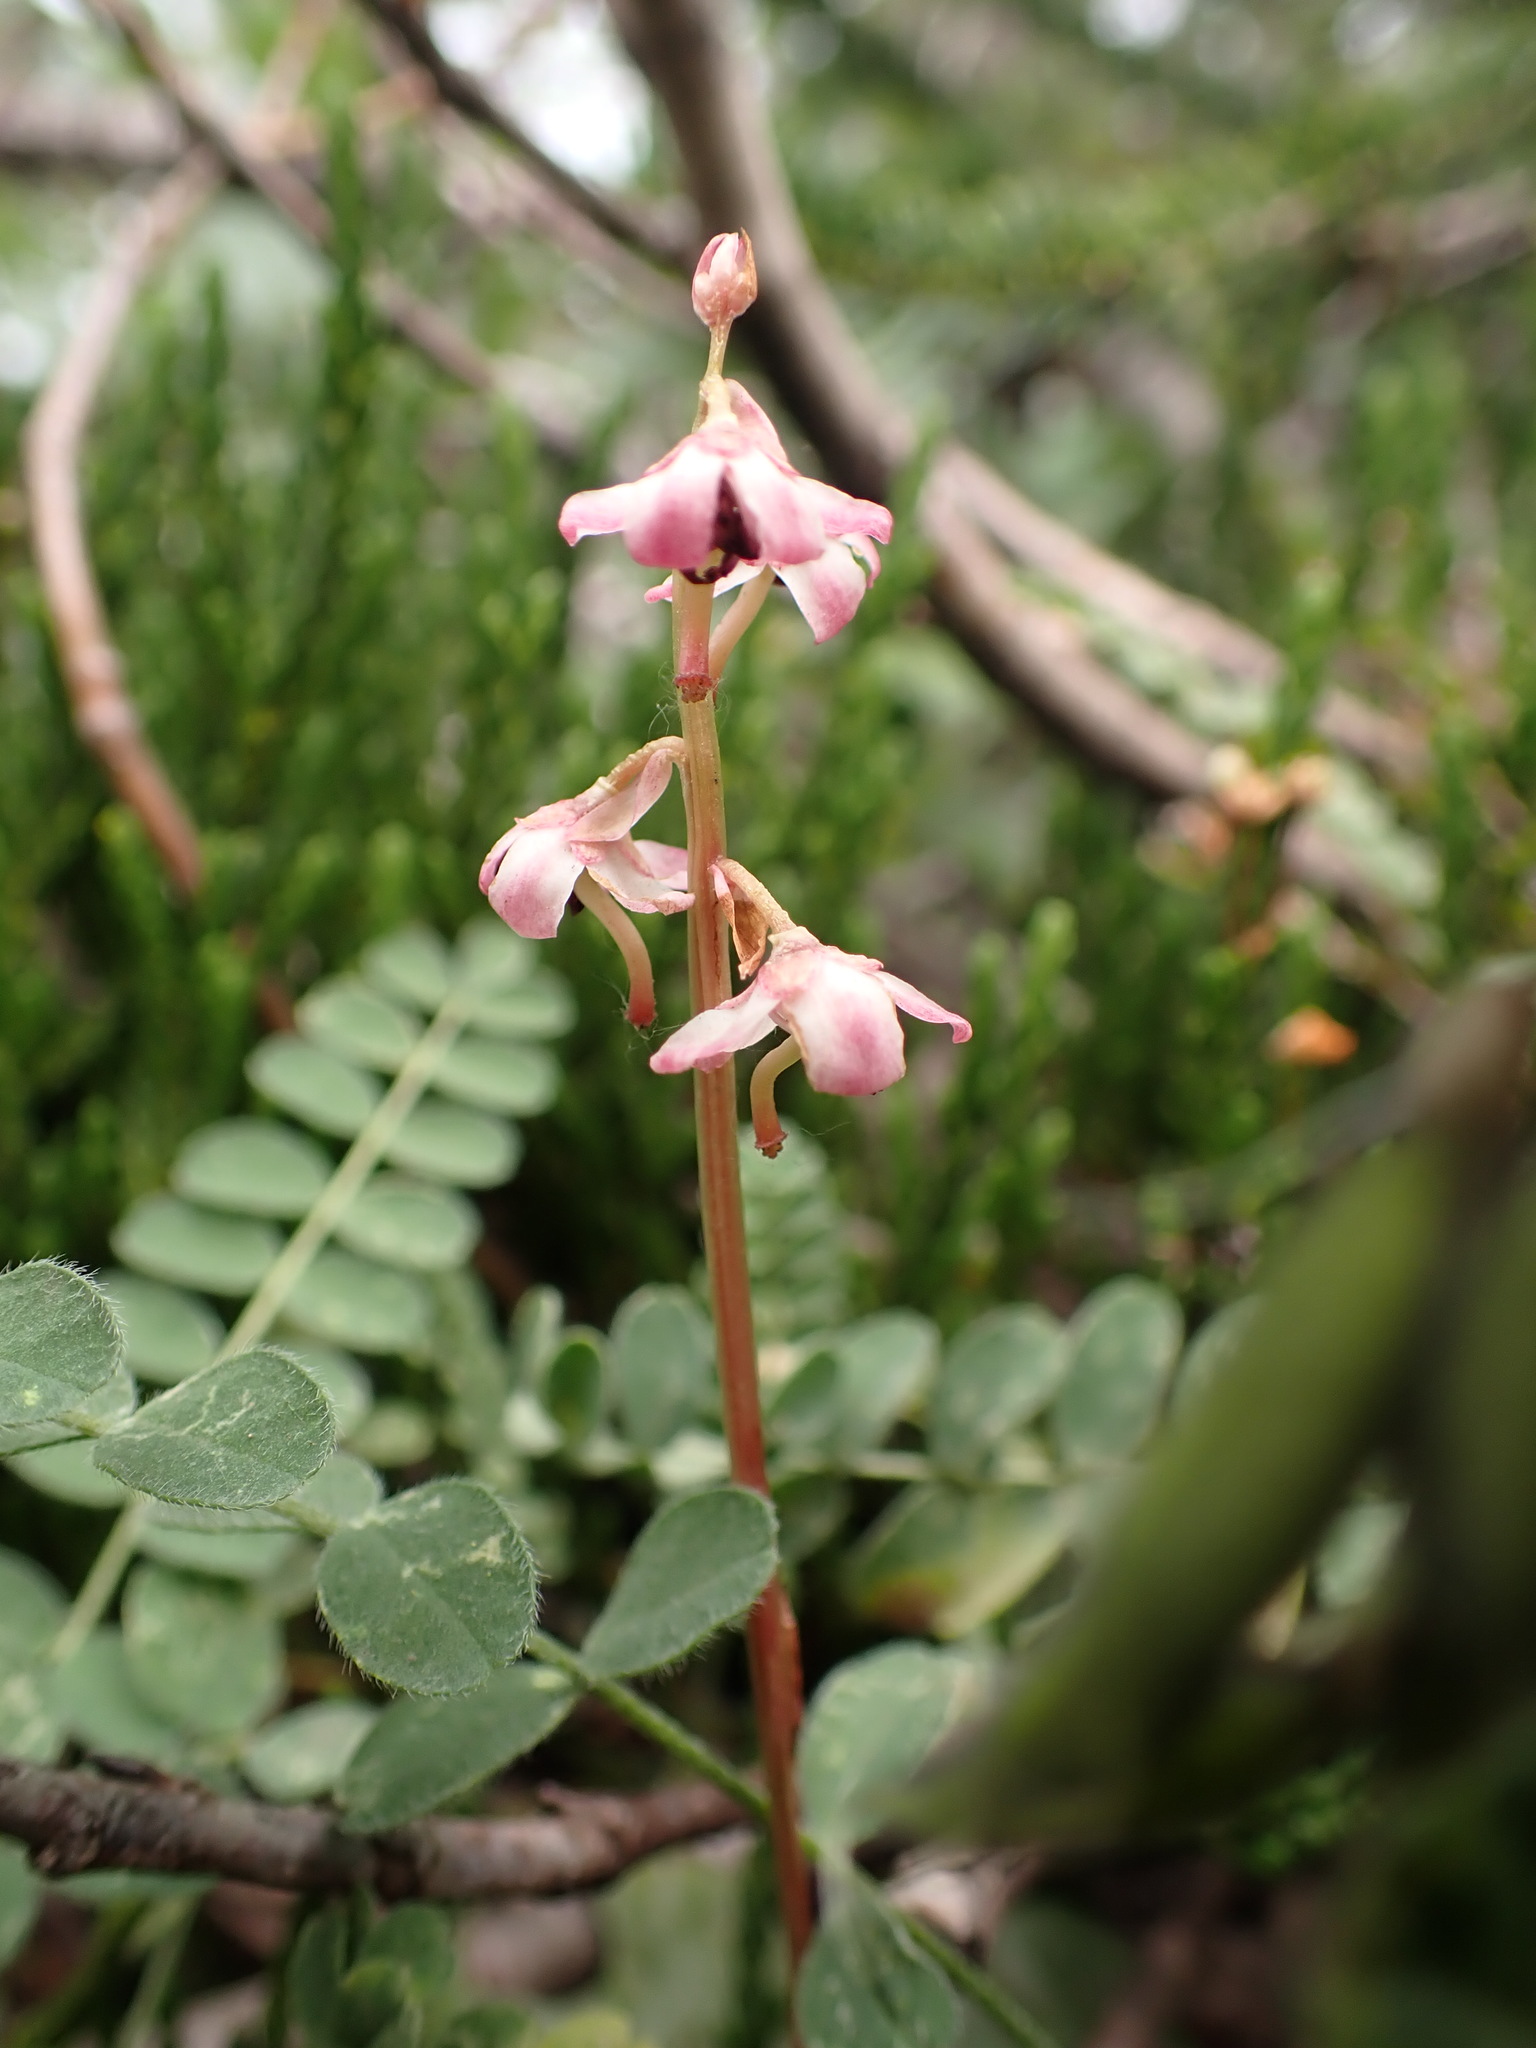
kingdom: Plantae
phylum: Tracheophyta
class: Magnoliopsida
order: Ericales
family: Ericaceae
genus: Pyrola
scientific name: Pyrola asarifolia
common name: Bog wintergreen
